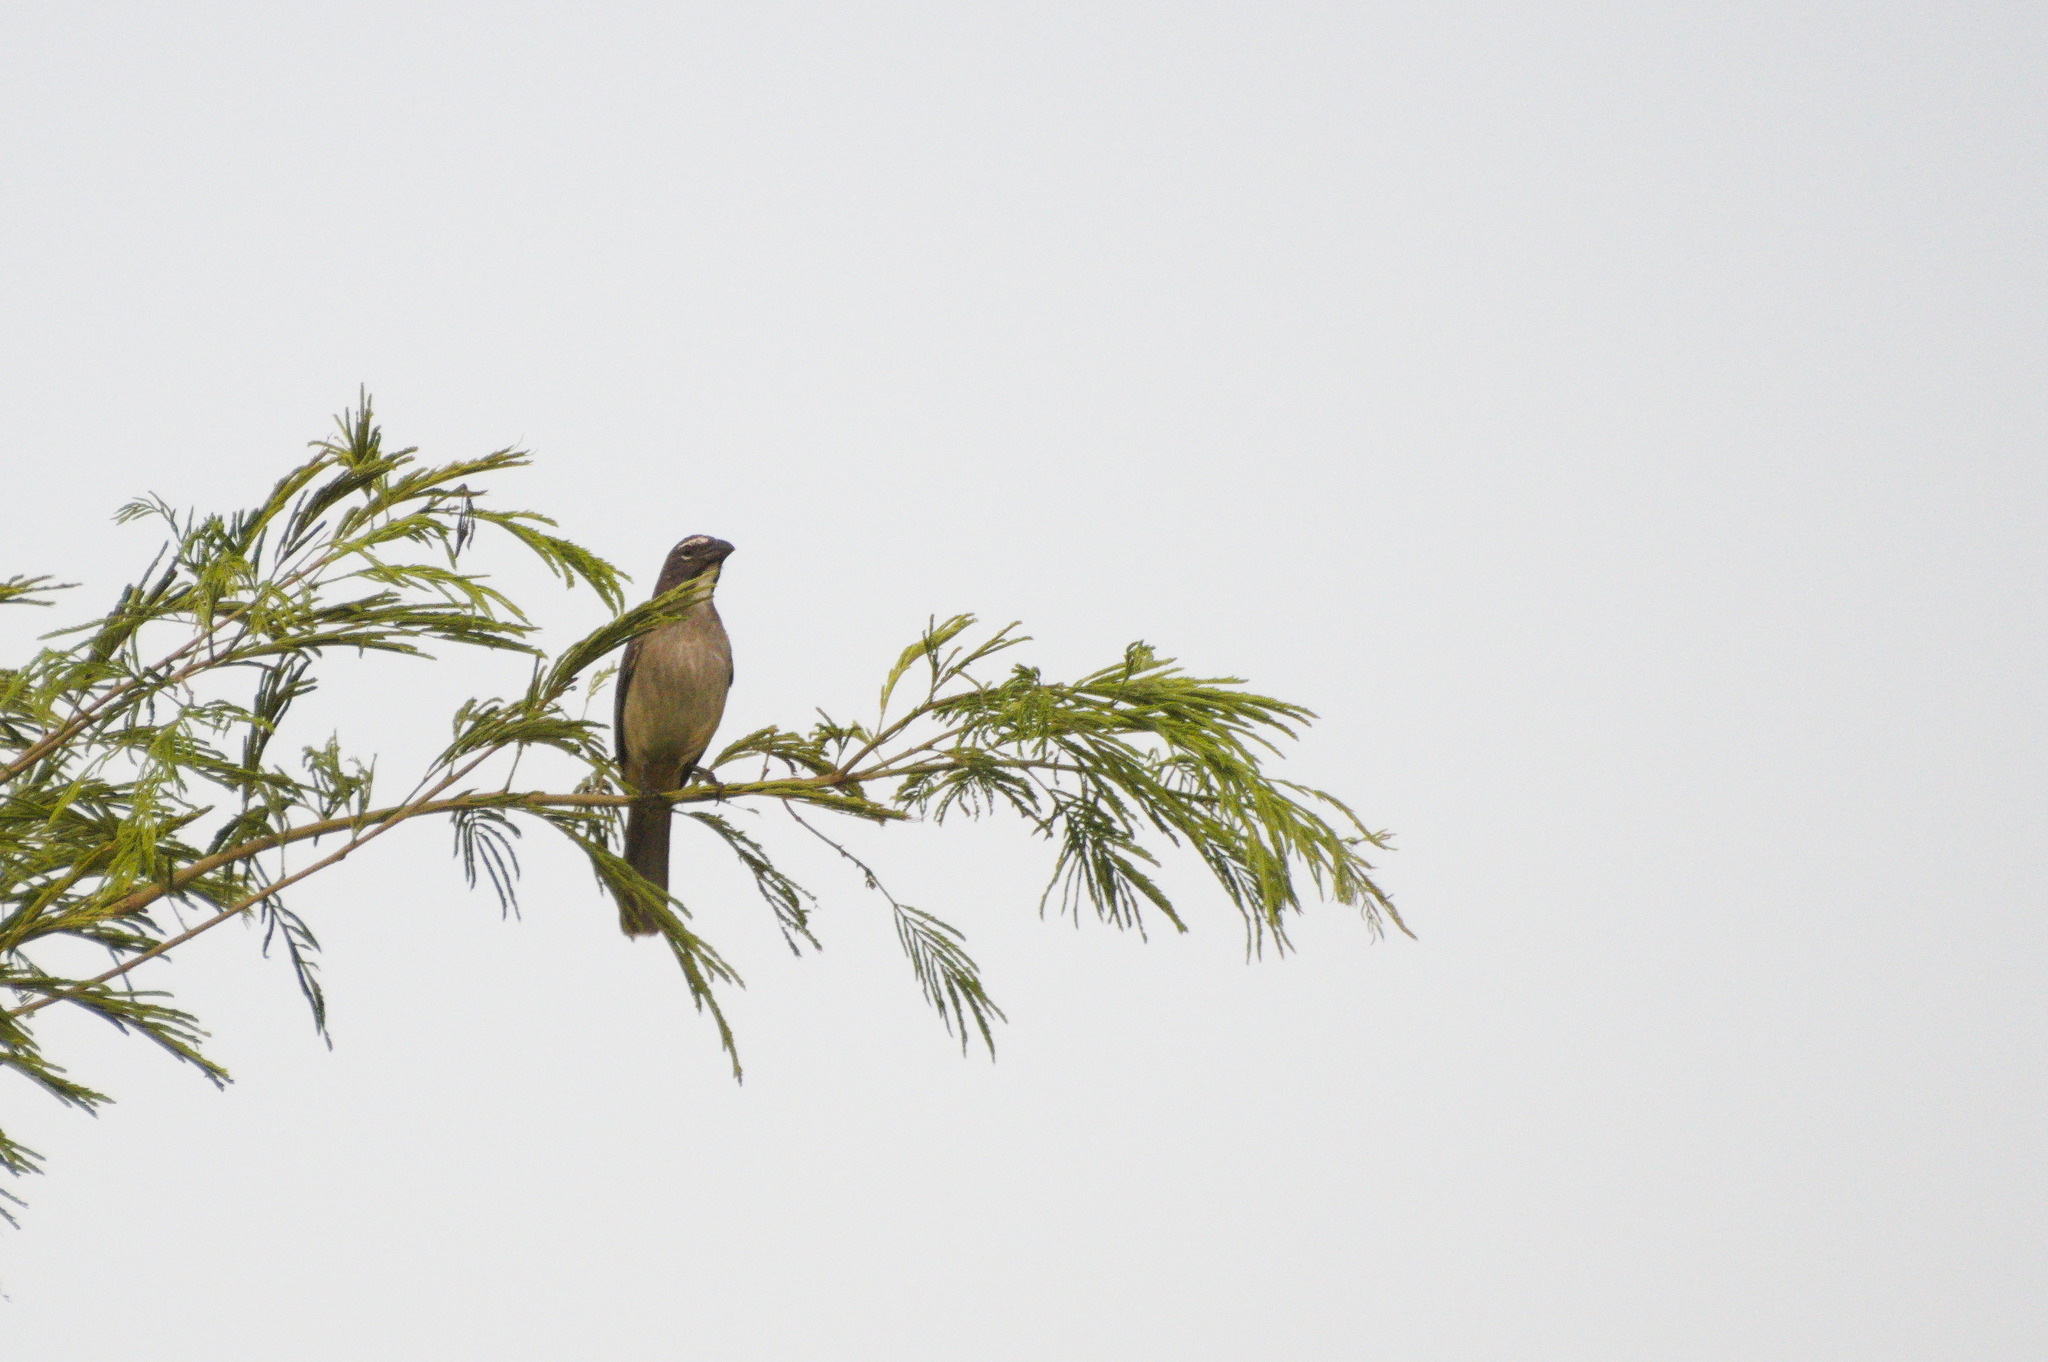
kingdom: Animalia
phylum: Chordata
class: Aves
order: Passeriformes
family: Thraupidae
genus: Saltator
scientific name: Saltator olivascens
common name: Caribbean grey saltator
